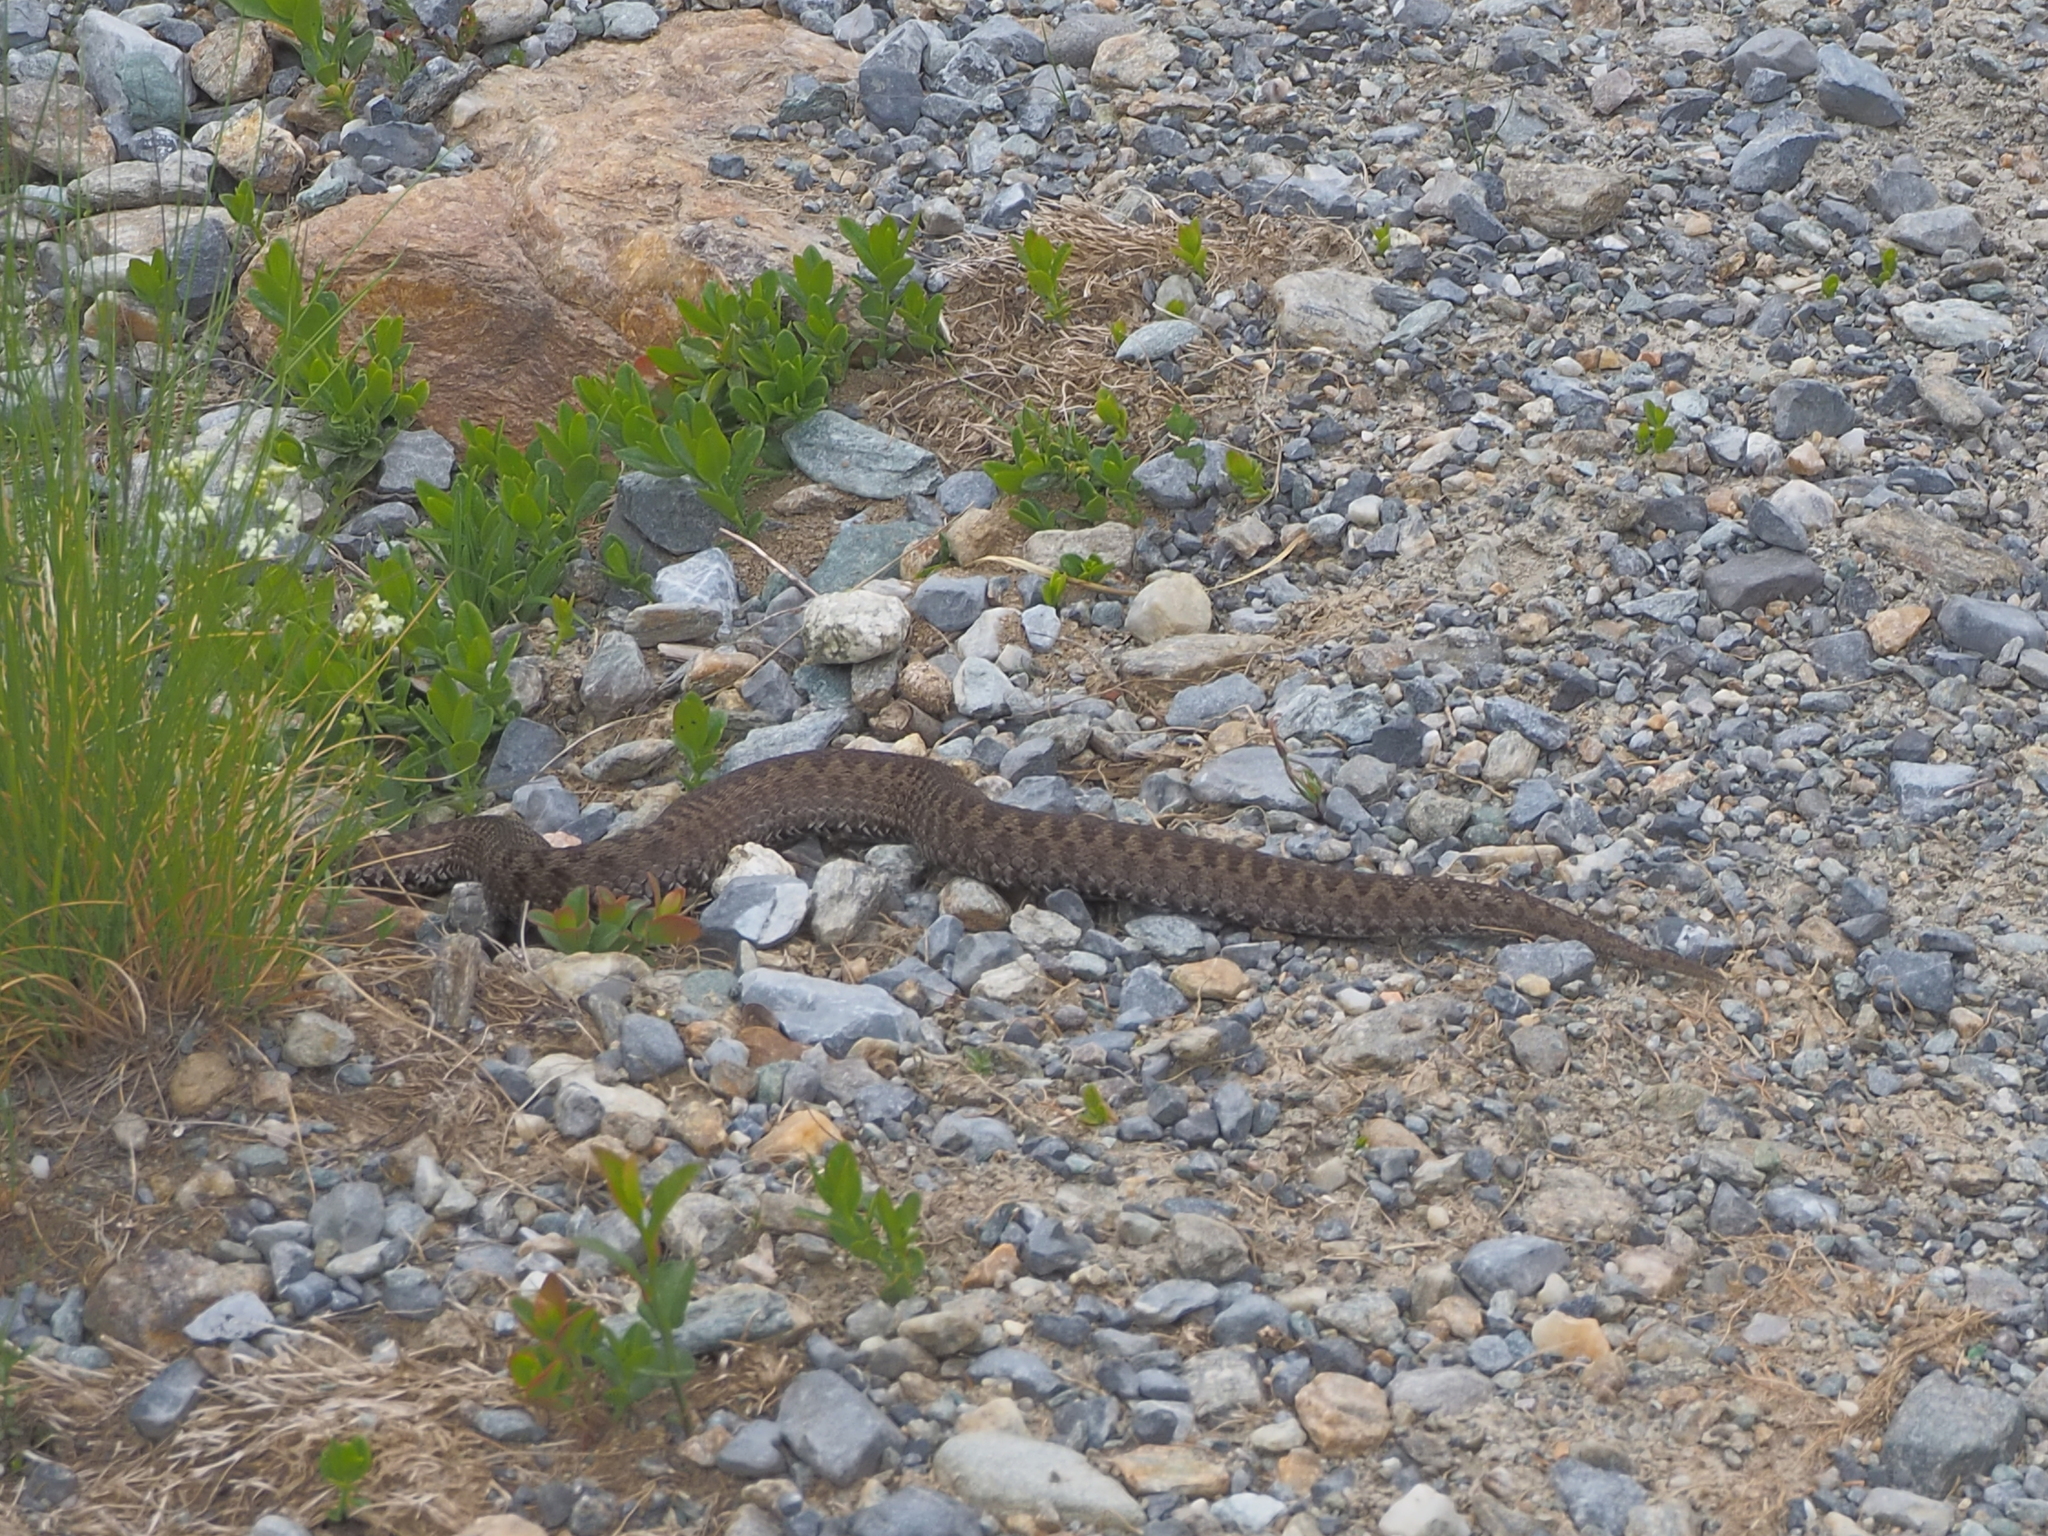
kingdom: Animalia
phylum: Chordata
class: Squamata
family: Viperidae
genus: Vipera
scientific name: Vipera berus
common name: Adder
